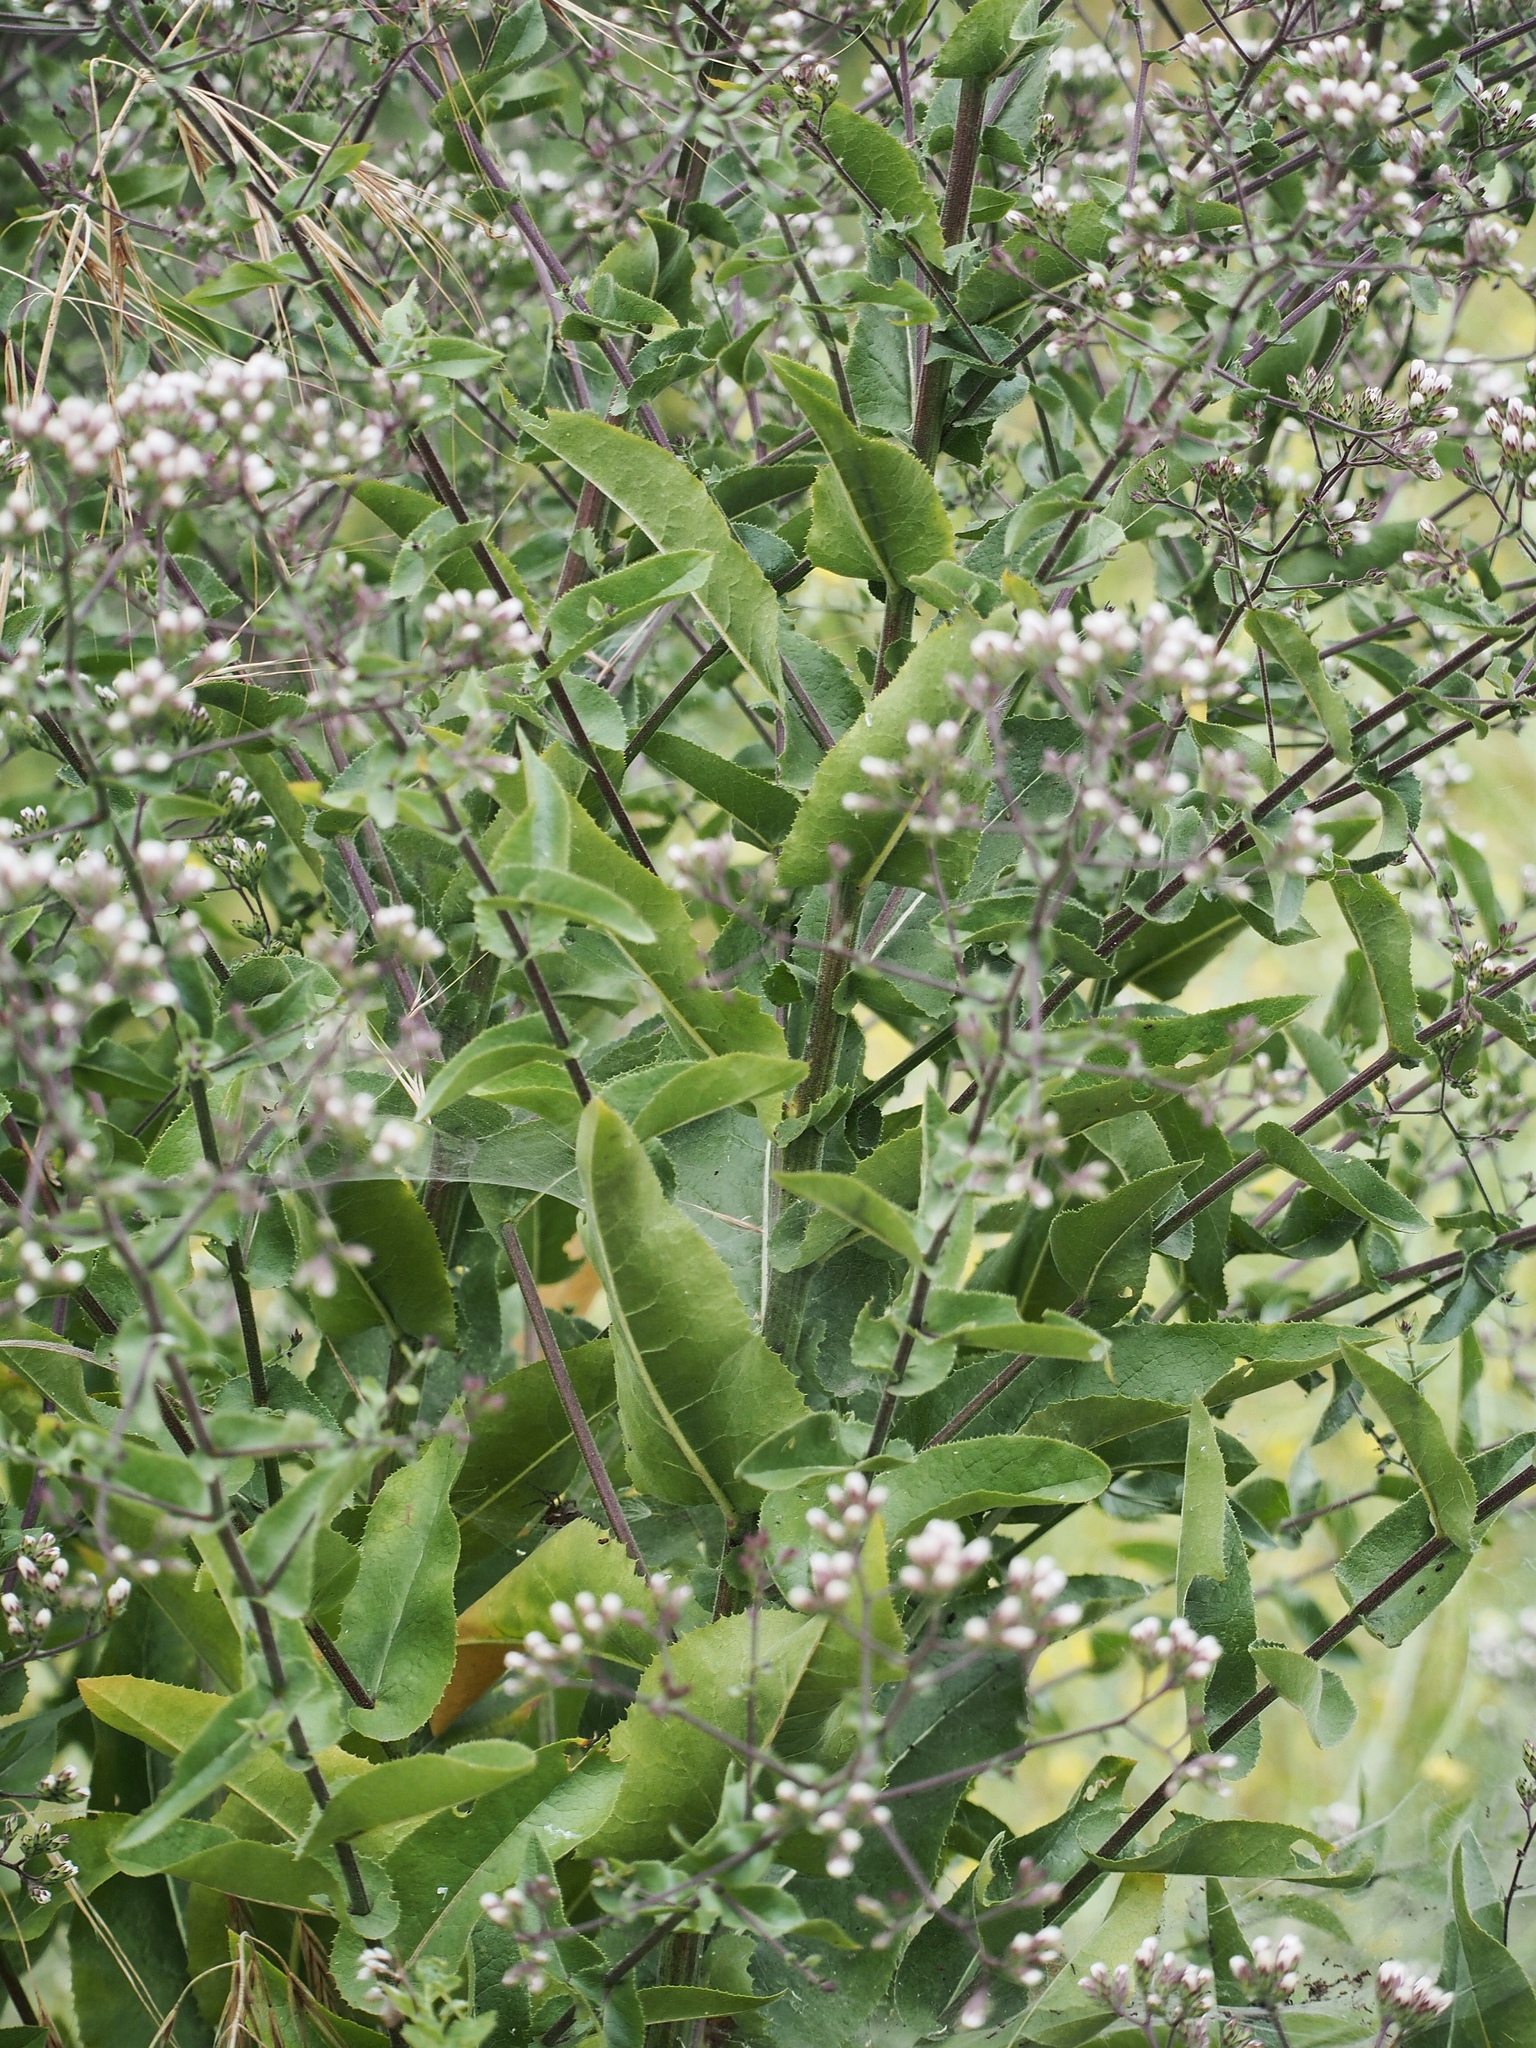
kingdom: Plantae
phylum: Tracheophyta
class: Magnoliopsida
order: Asterales
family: Asteraceae
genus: Acourtia
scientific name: Acourtia microcephala
